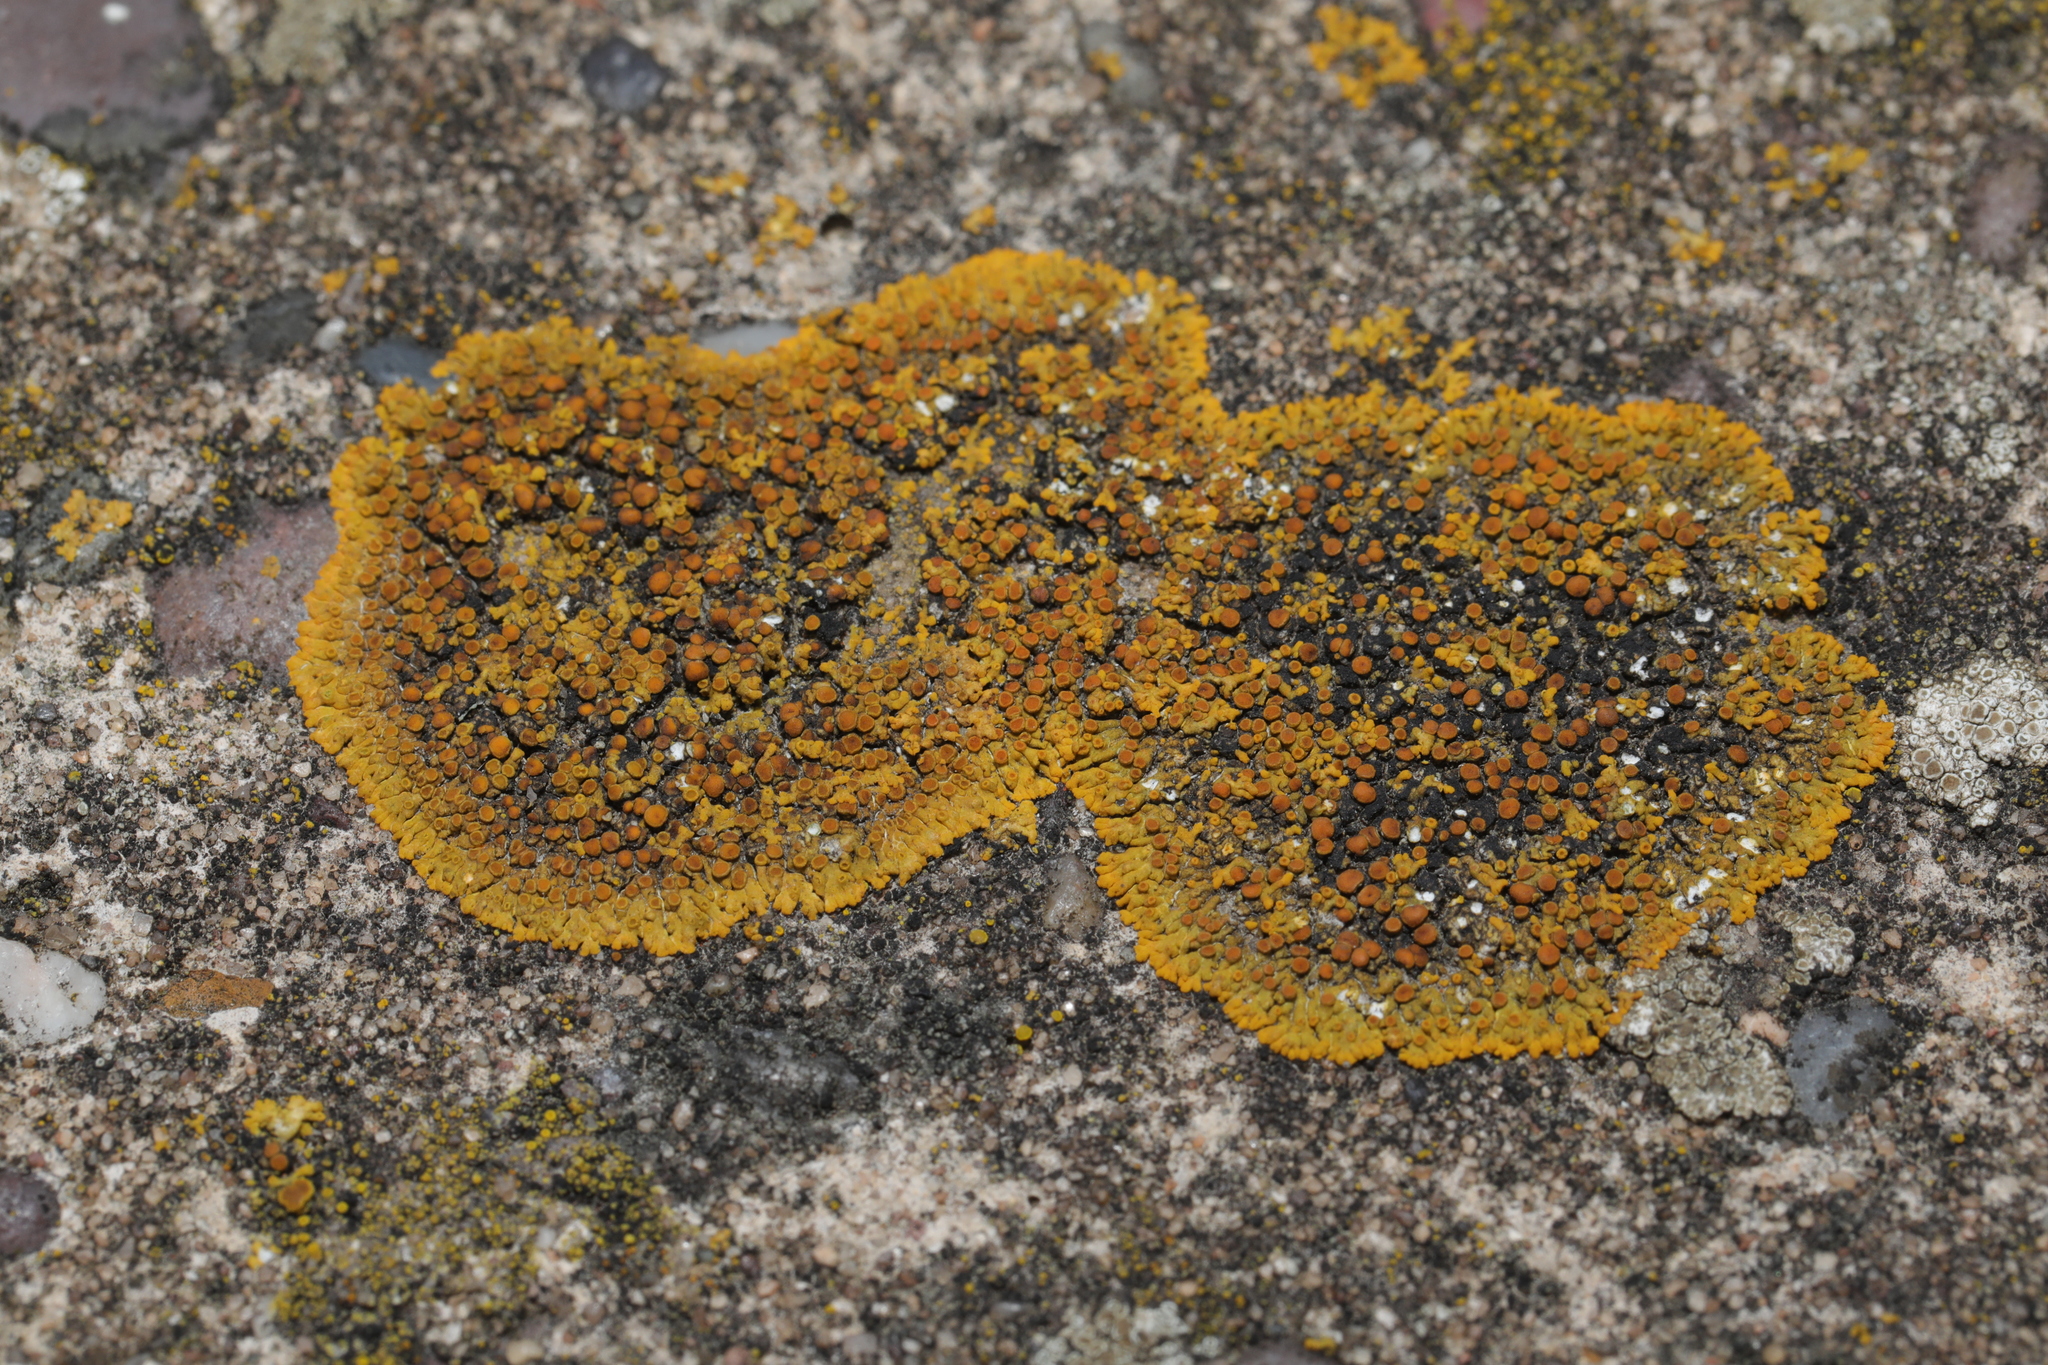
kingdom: Fungi
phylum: Ascomycota
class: Lecanoromycetes
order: Teloschistales
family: Teloschistaceae
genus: Calogaya
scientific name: Calogaya saxicola
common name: Rock jewel lichen
